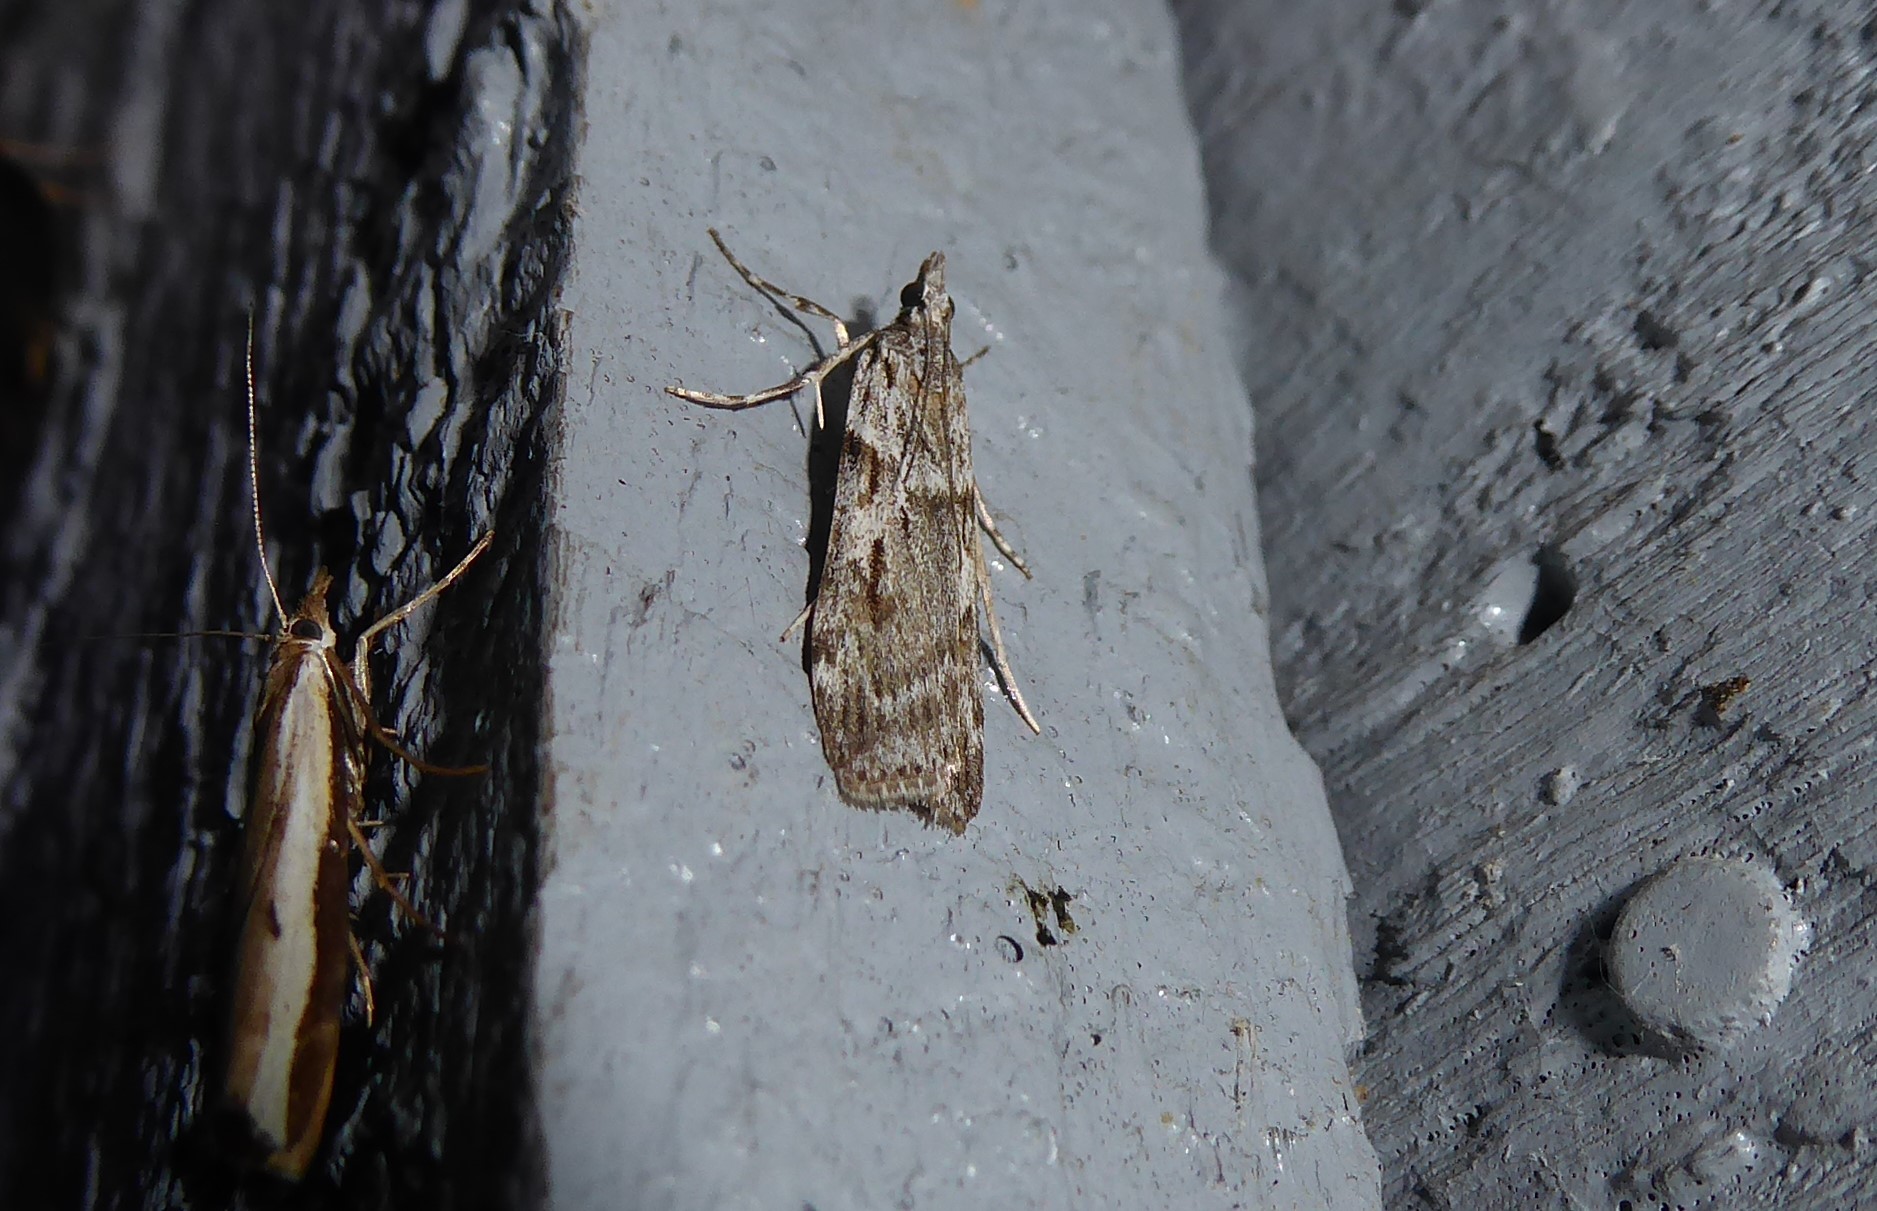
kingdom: Animalia
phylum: Arthropoda
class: Insecta
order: Lepidoptera
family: Crambidae
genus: Scoparia
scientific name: Scoparia halopis
